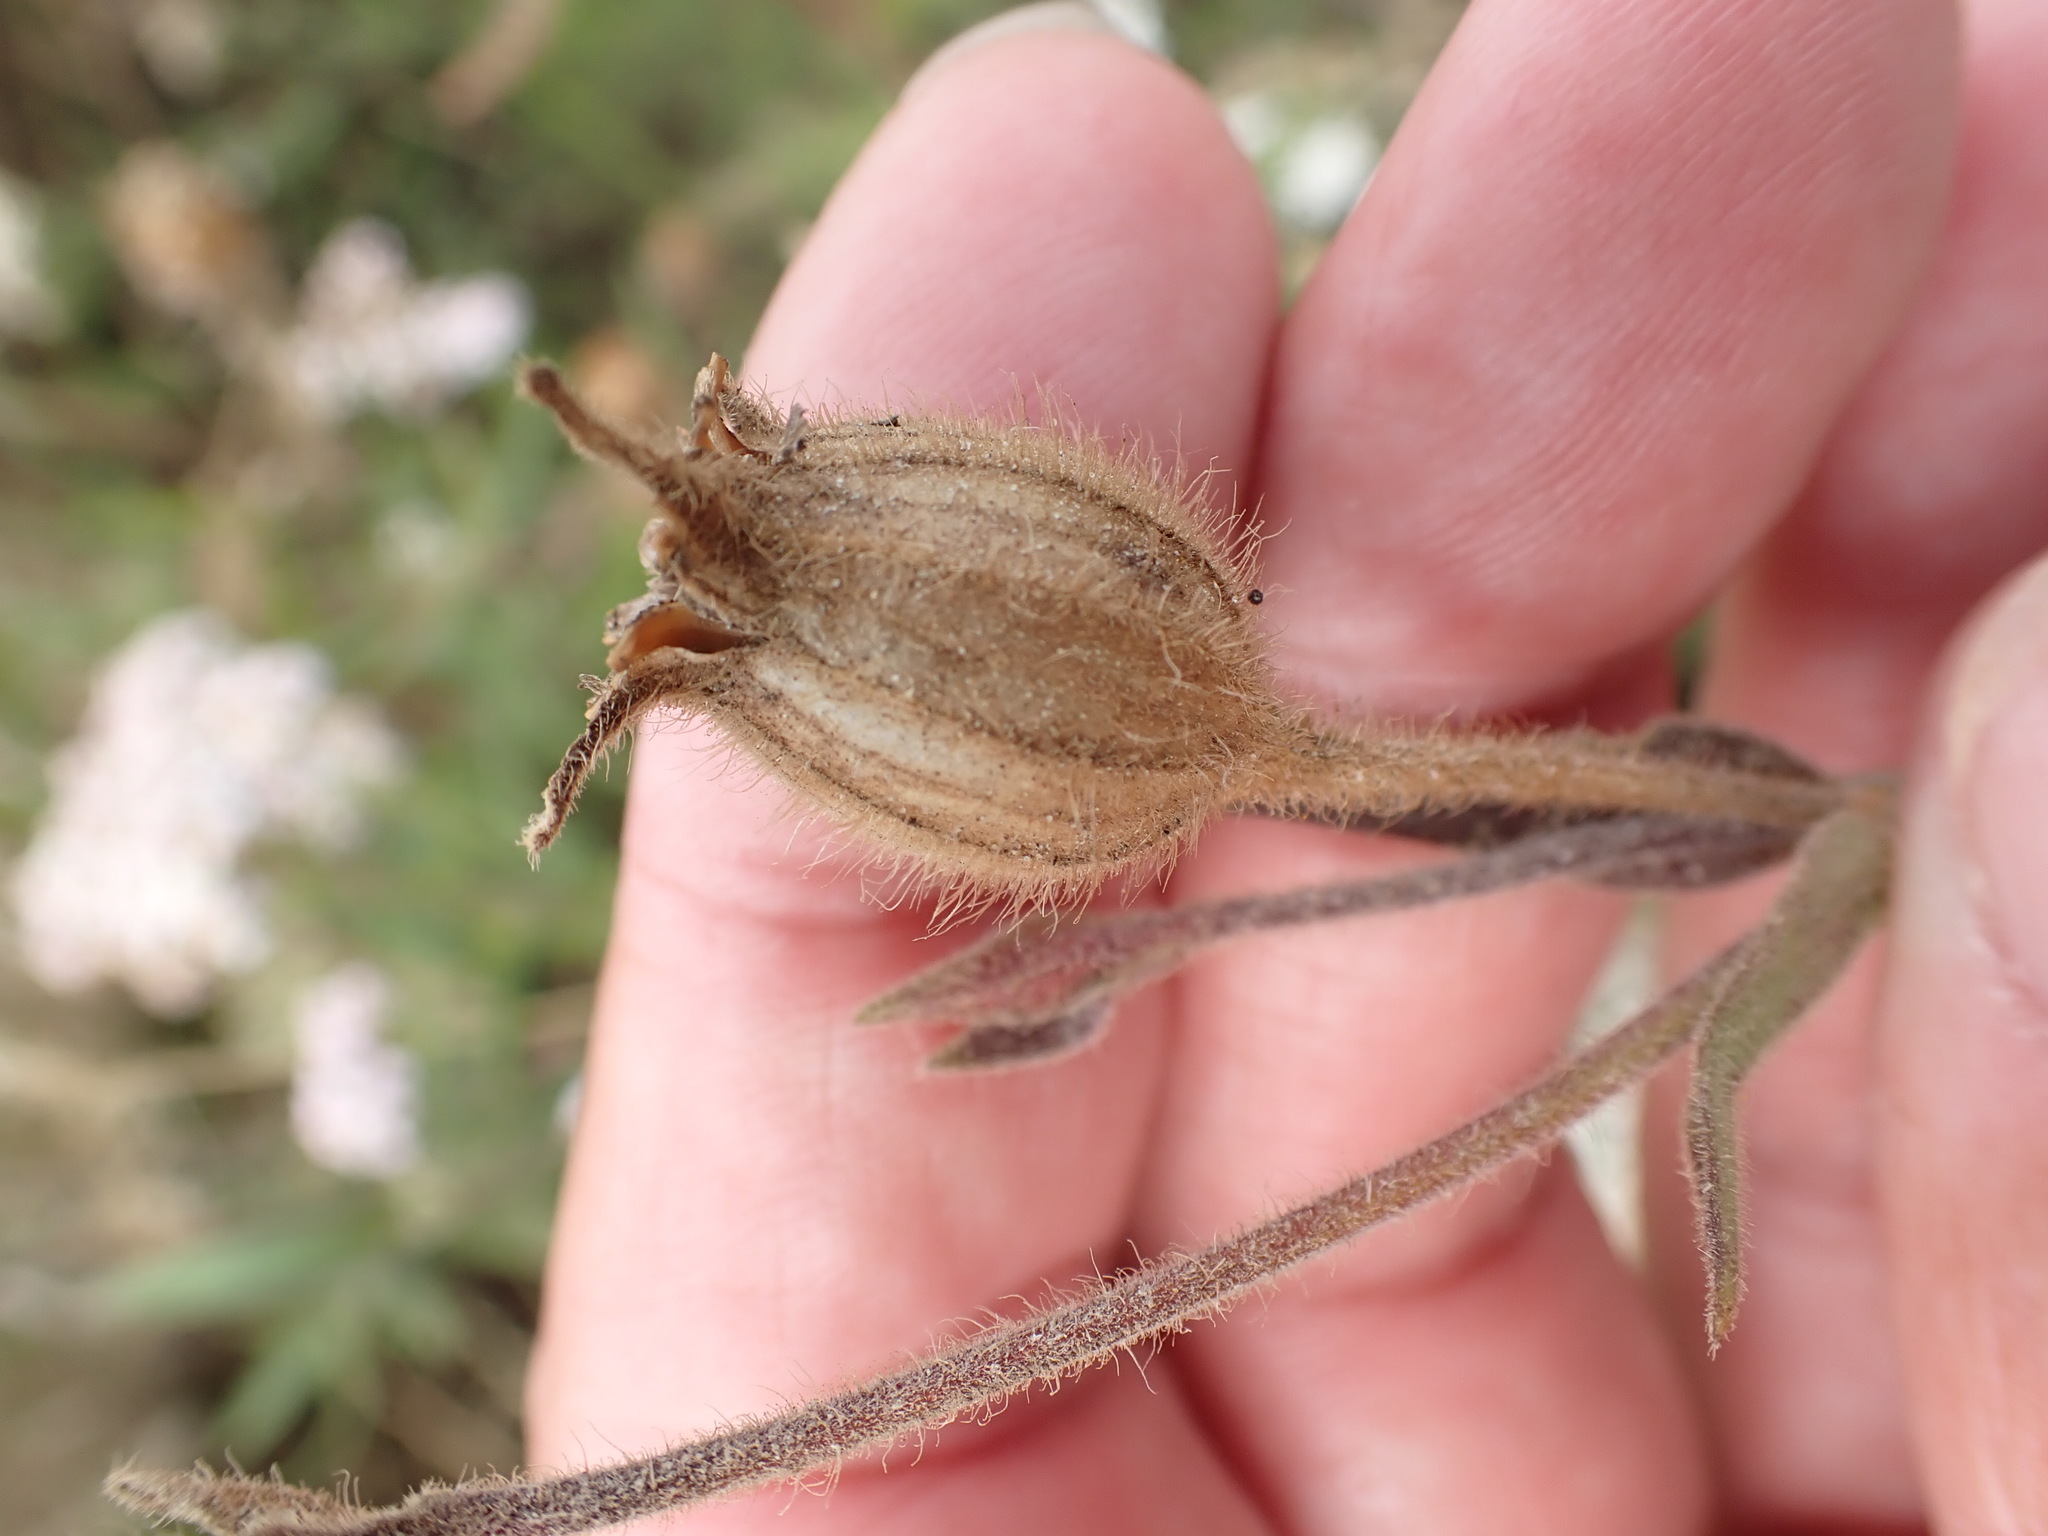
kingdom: Plantae
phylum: Tracheophyta
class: Magnoliopsida
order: Caryophyllales
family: Caryophyllaceae
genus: Silene
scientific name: Silene latifolia
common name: White campion
